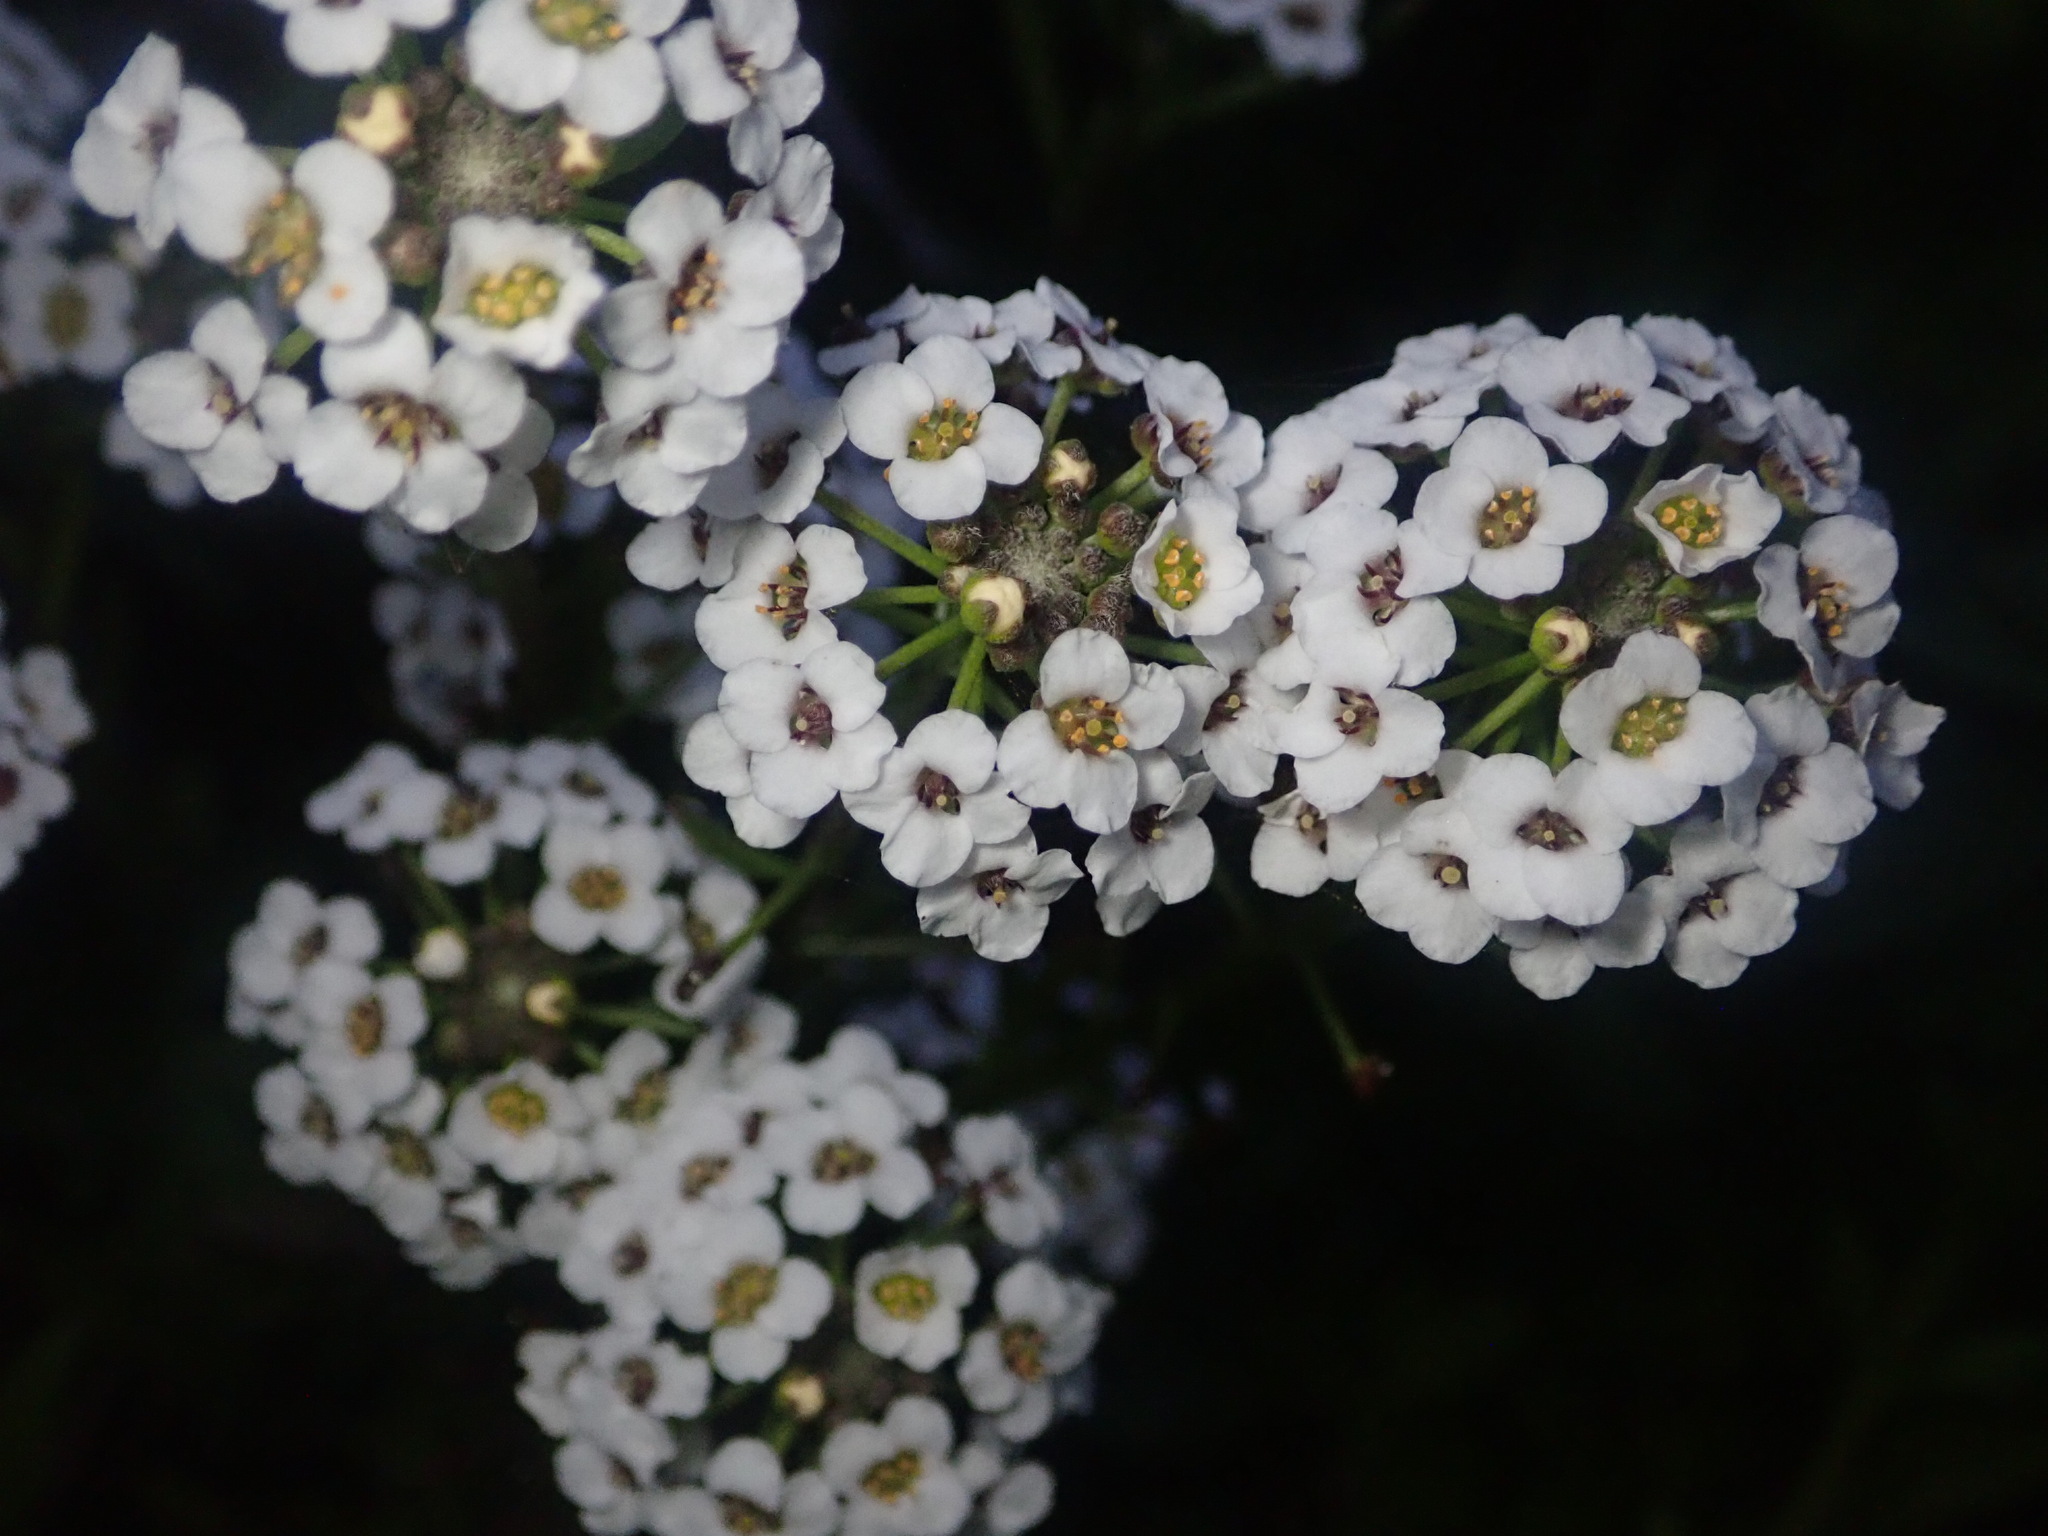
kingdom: Plantae
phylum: Tracheophyta
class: Magnoliopsida
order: Brassicales
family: Brassicaceae
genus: Lobularia
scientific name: Lobularia maritima
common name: Sweet alison
